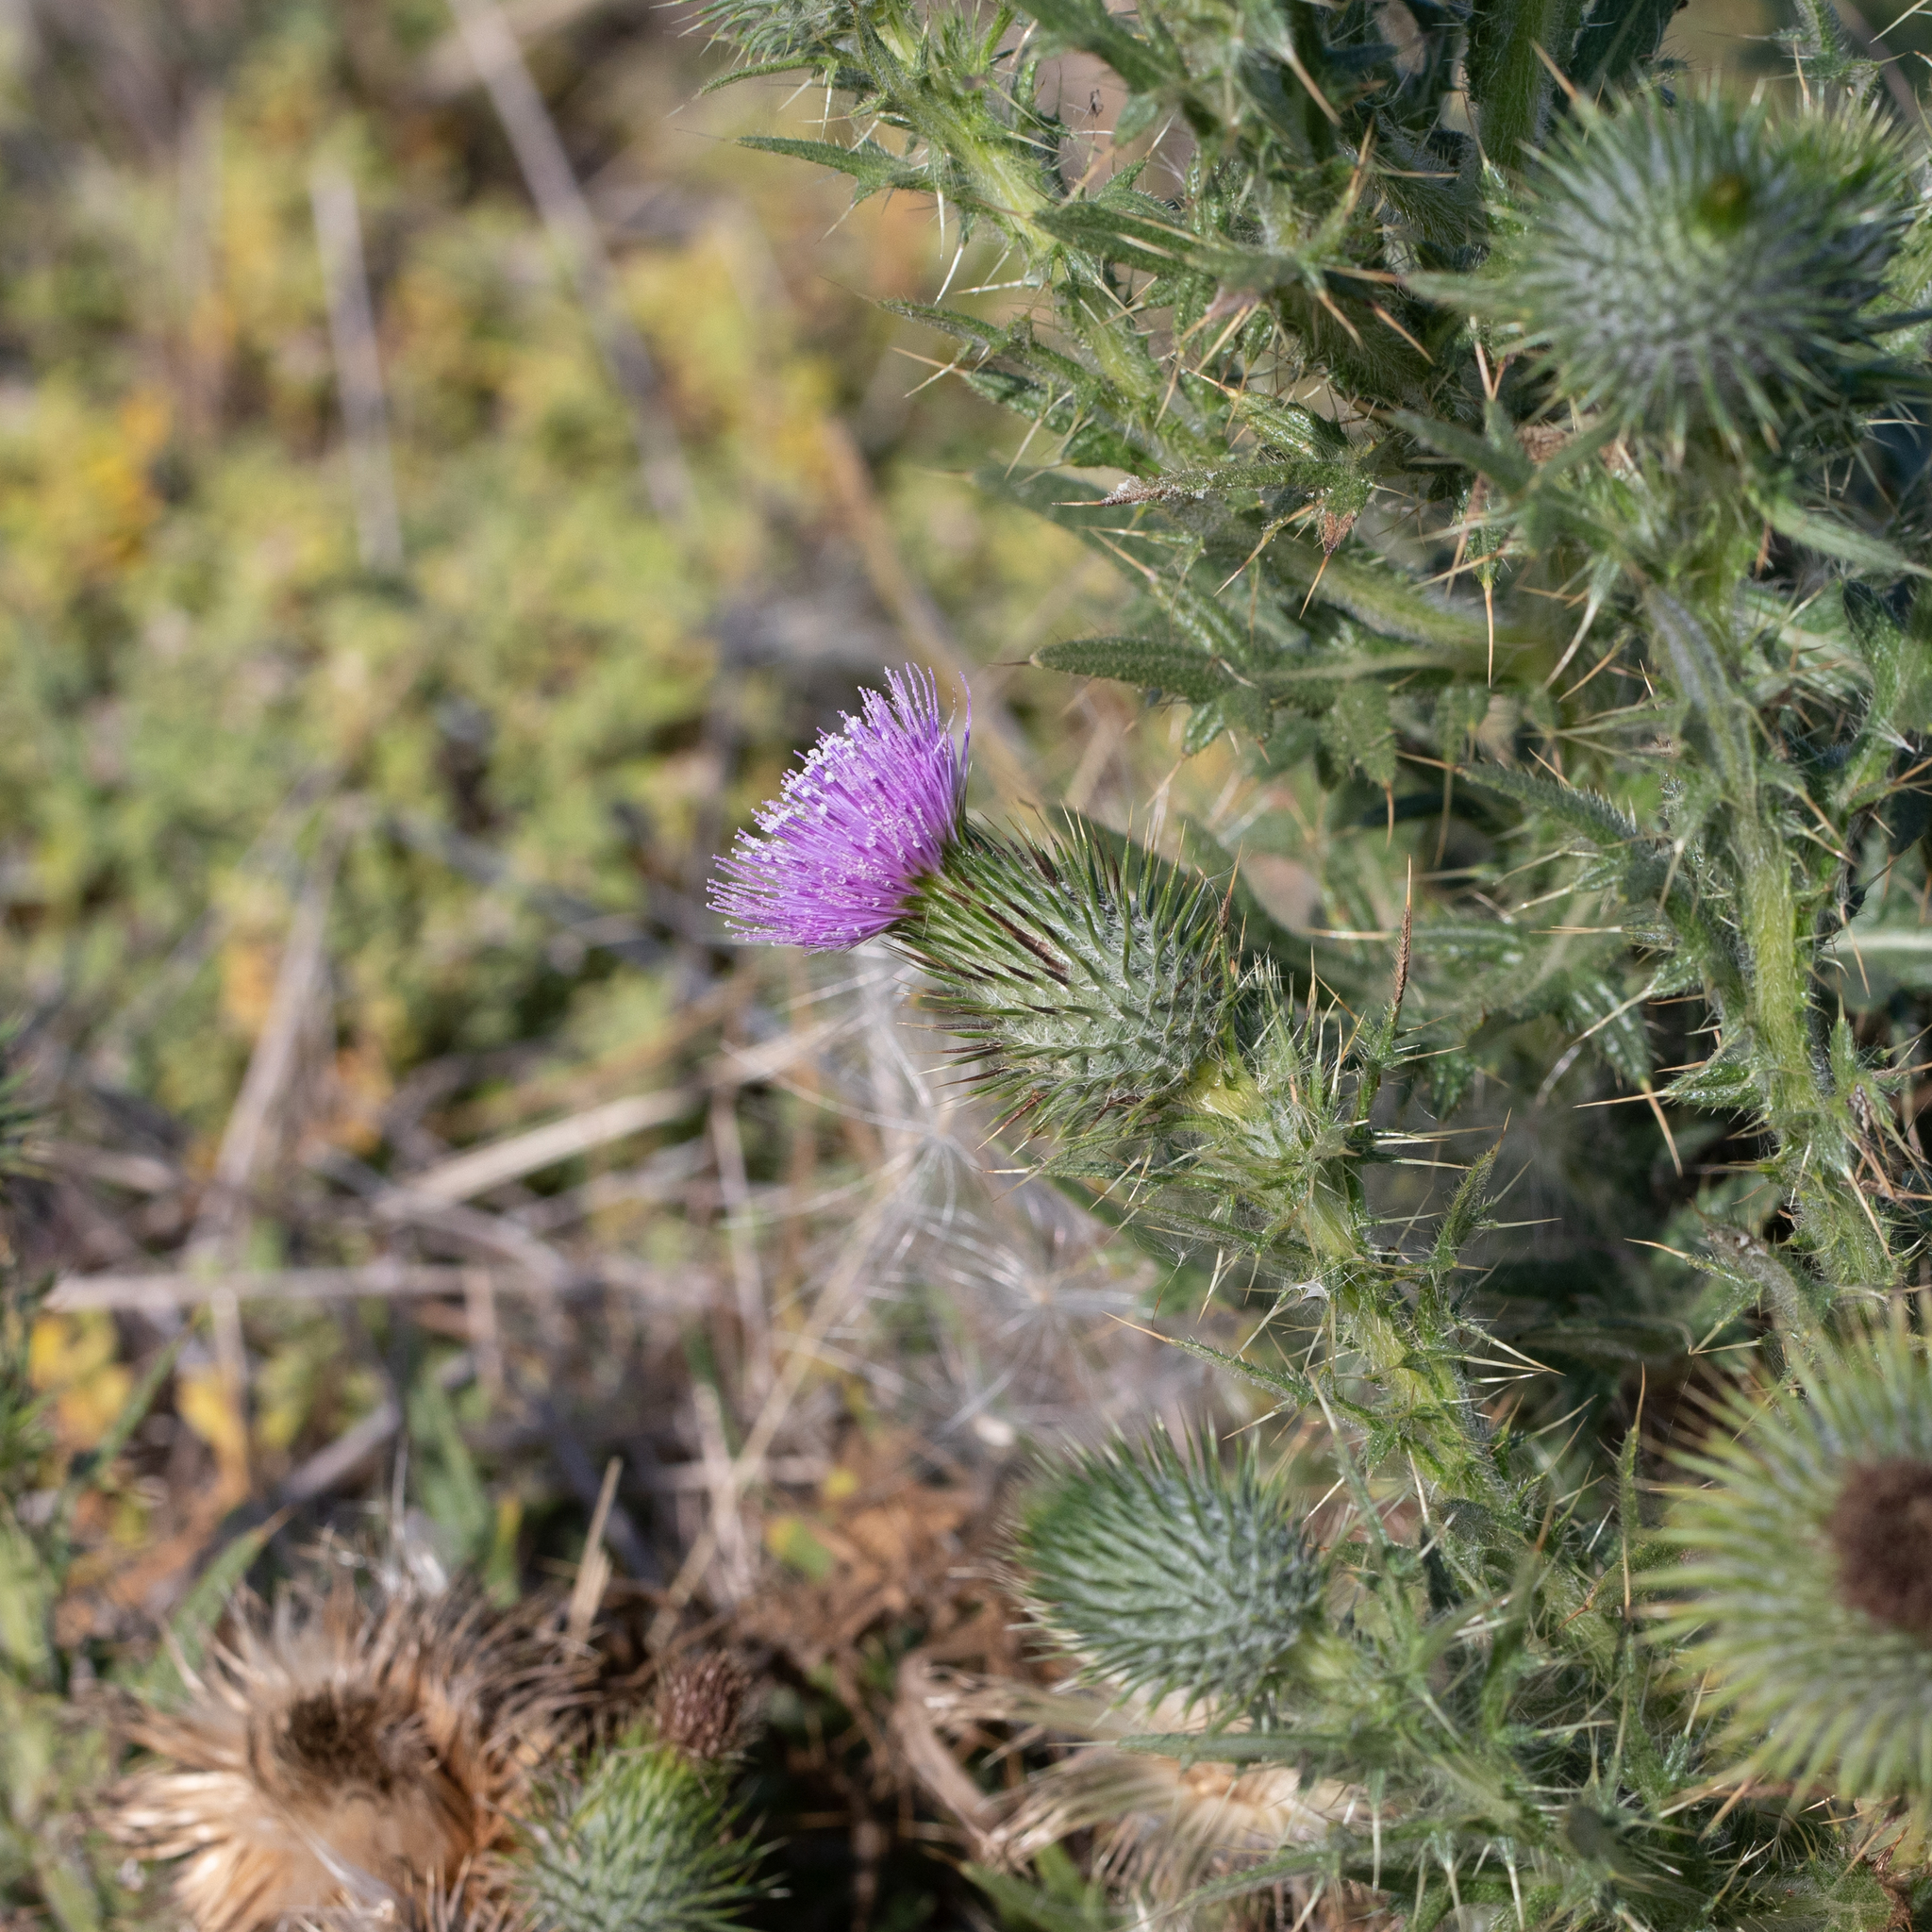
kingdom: Plantae
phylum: Tracheophyta
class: Magnoliopsida
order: Asterales
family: Asteraceae
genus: Cirsium
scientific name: Cirsium vulgare
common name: Bull thistle
